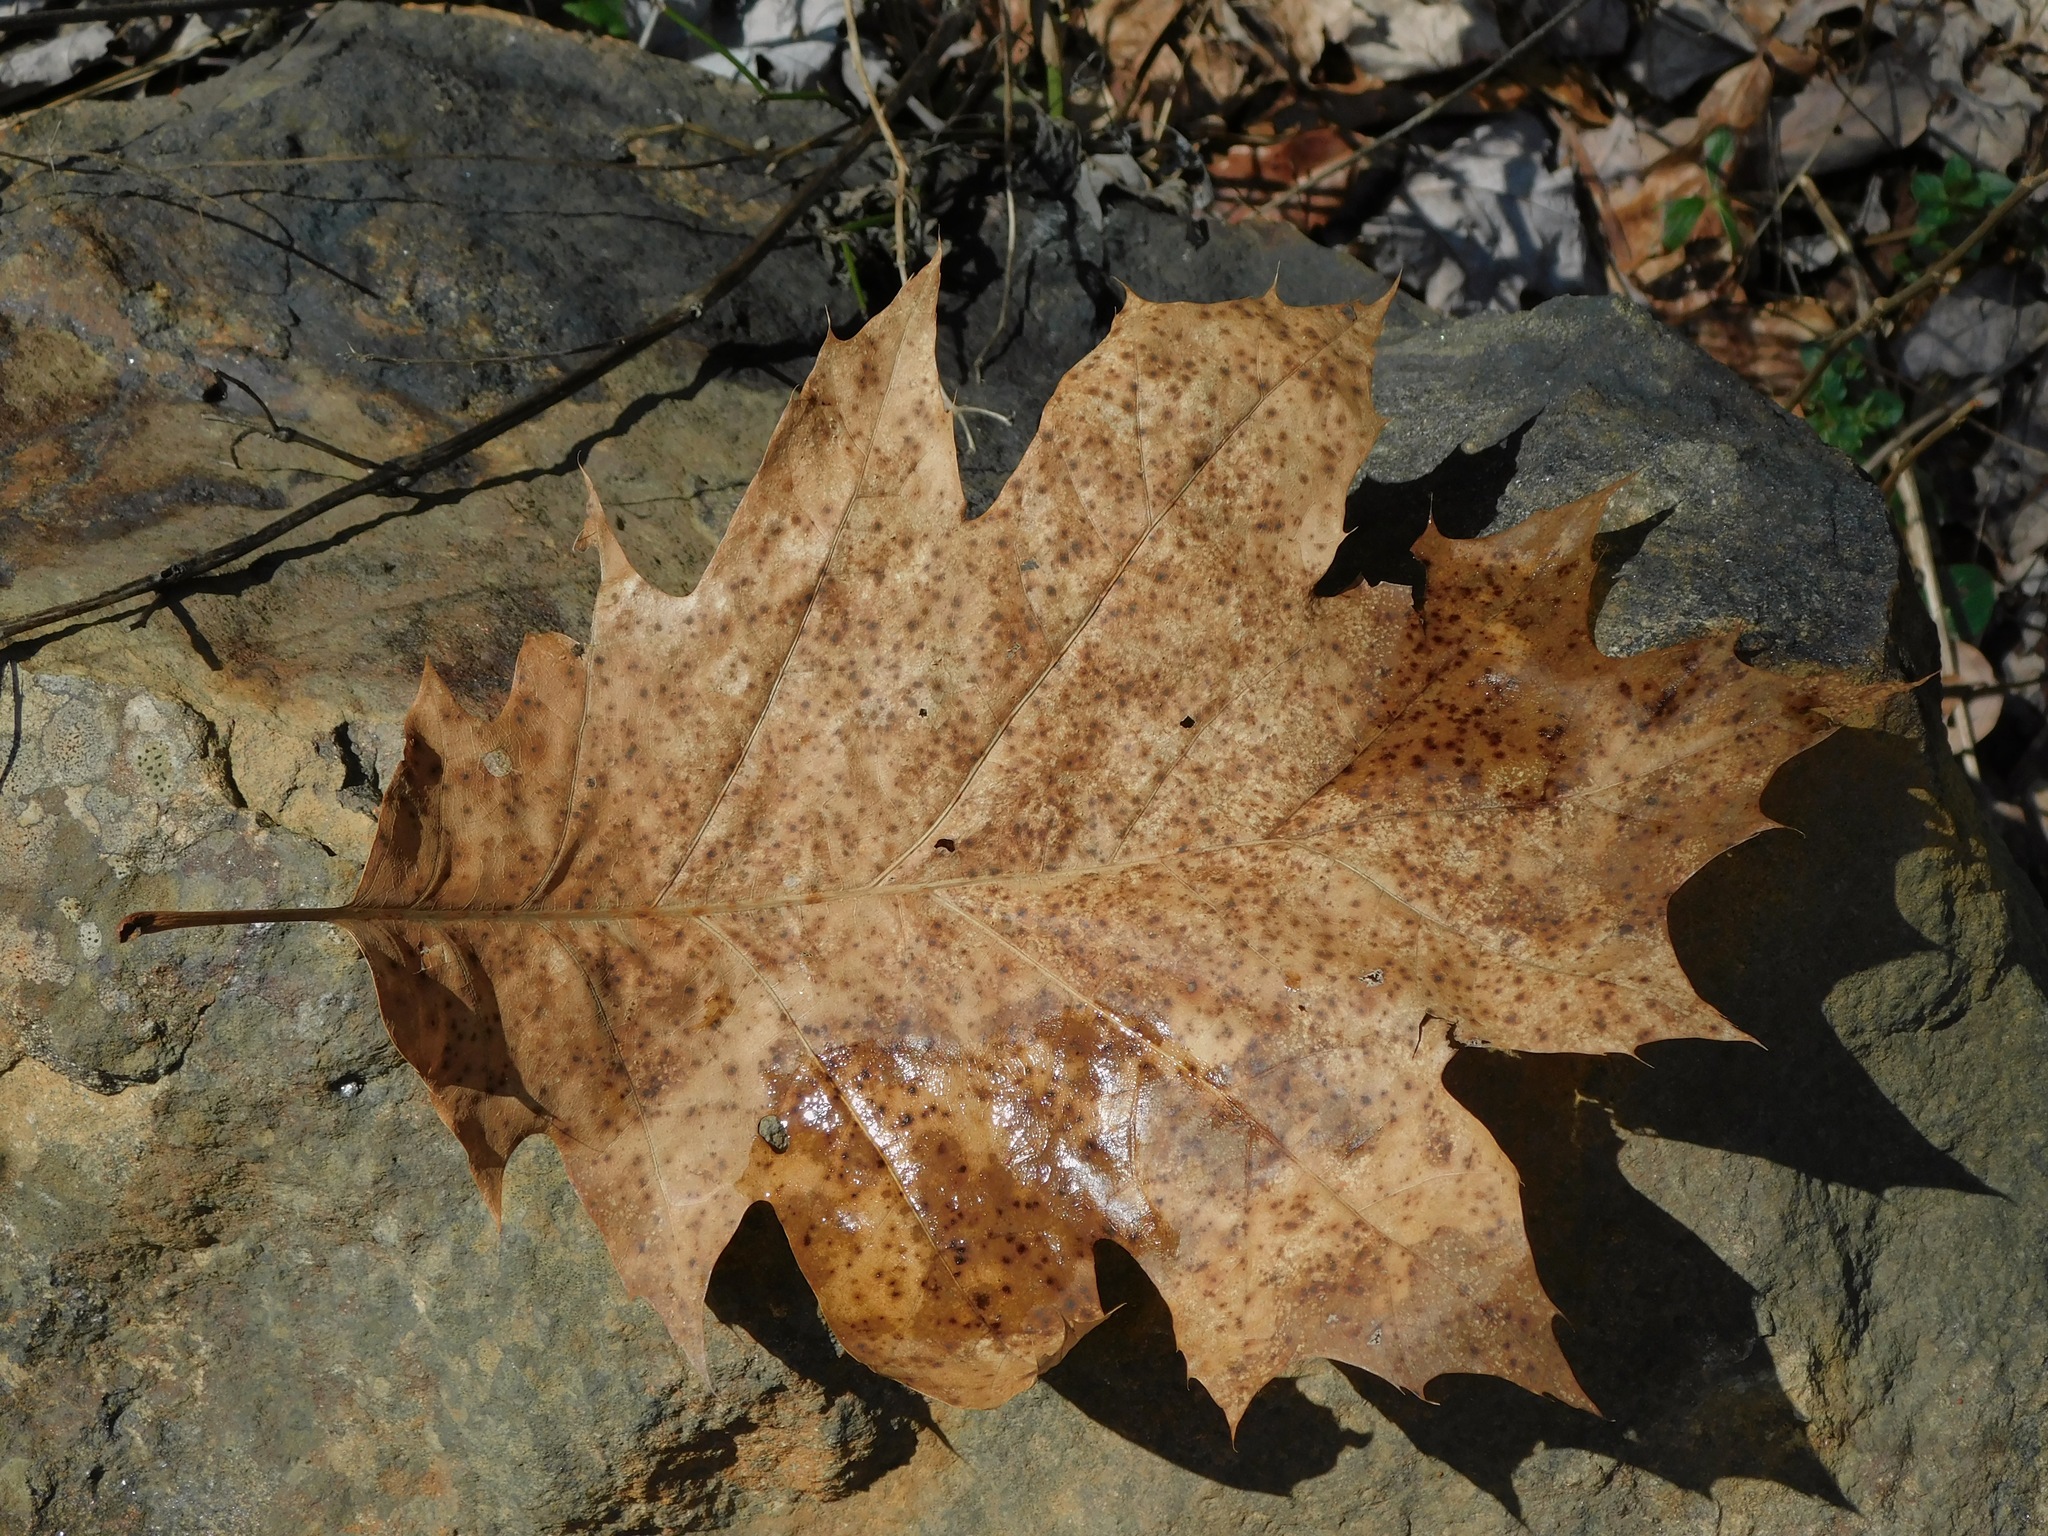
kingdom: Plantae
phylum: Tracheophyta
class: Magnoliopsida
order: Fagales
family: Fagaceae
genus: Quercus
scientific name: Quercus velutina
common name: Black oak
